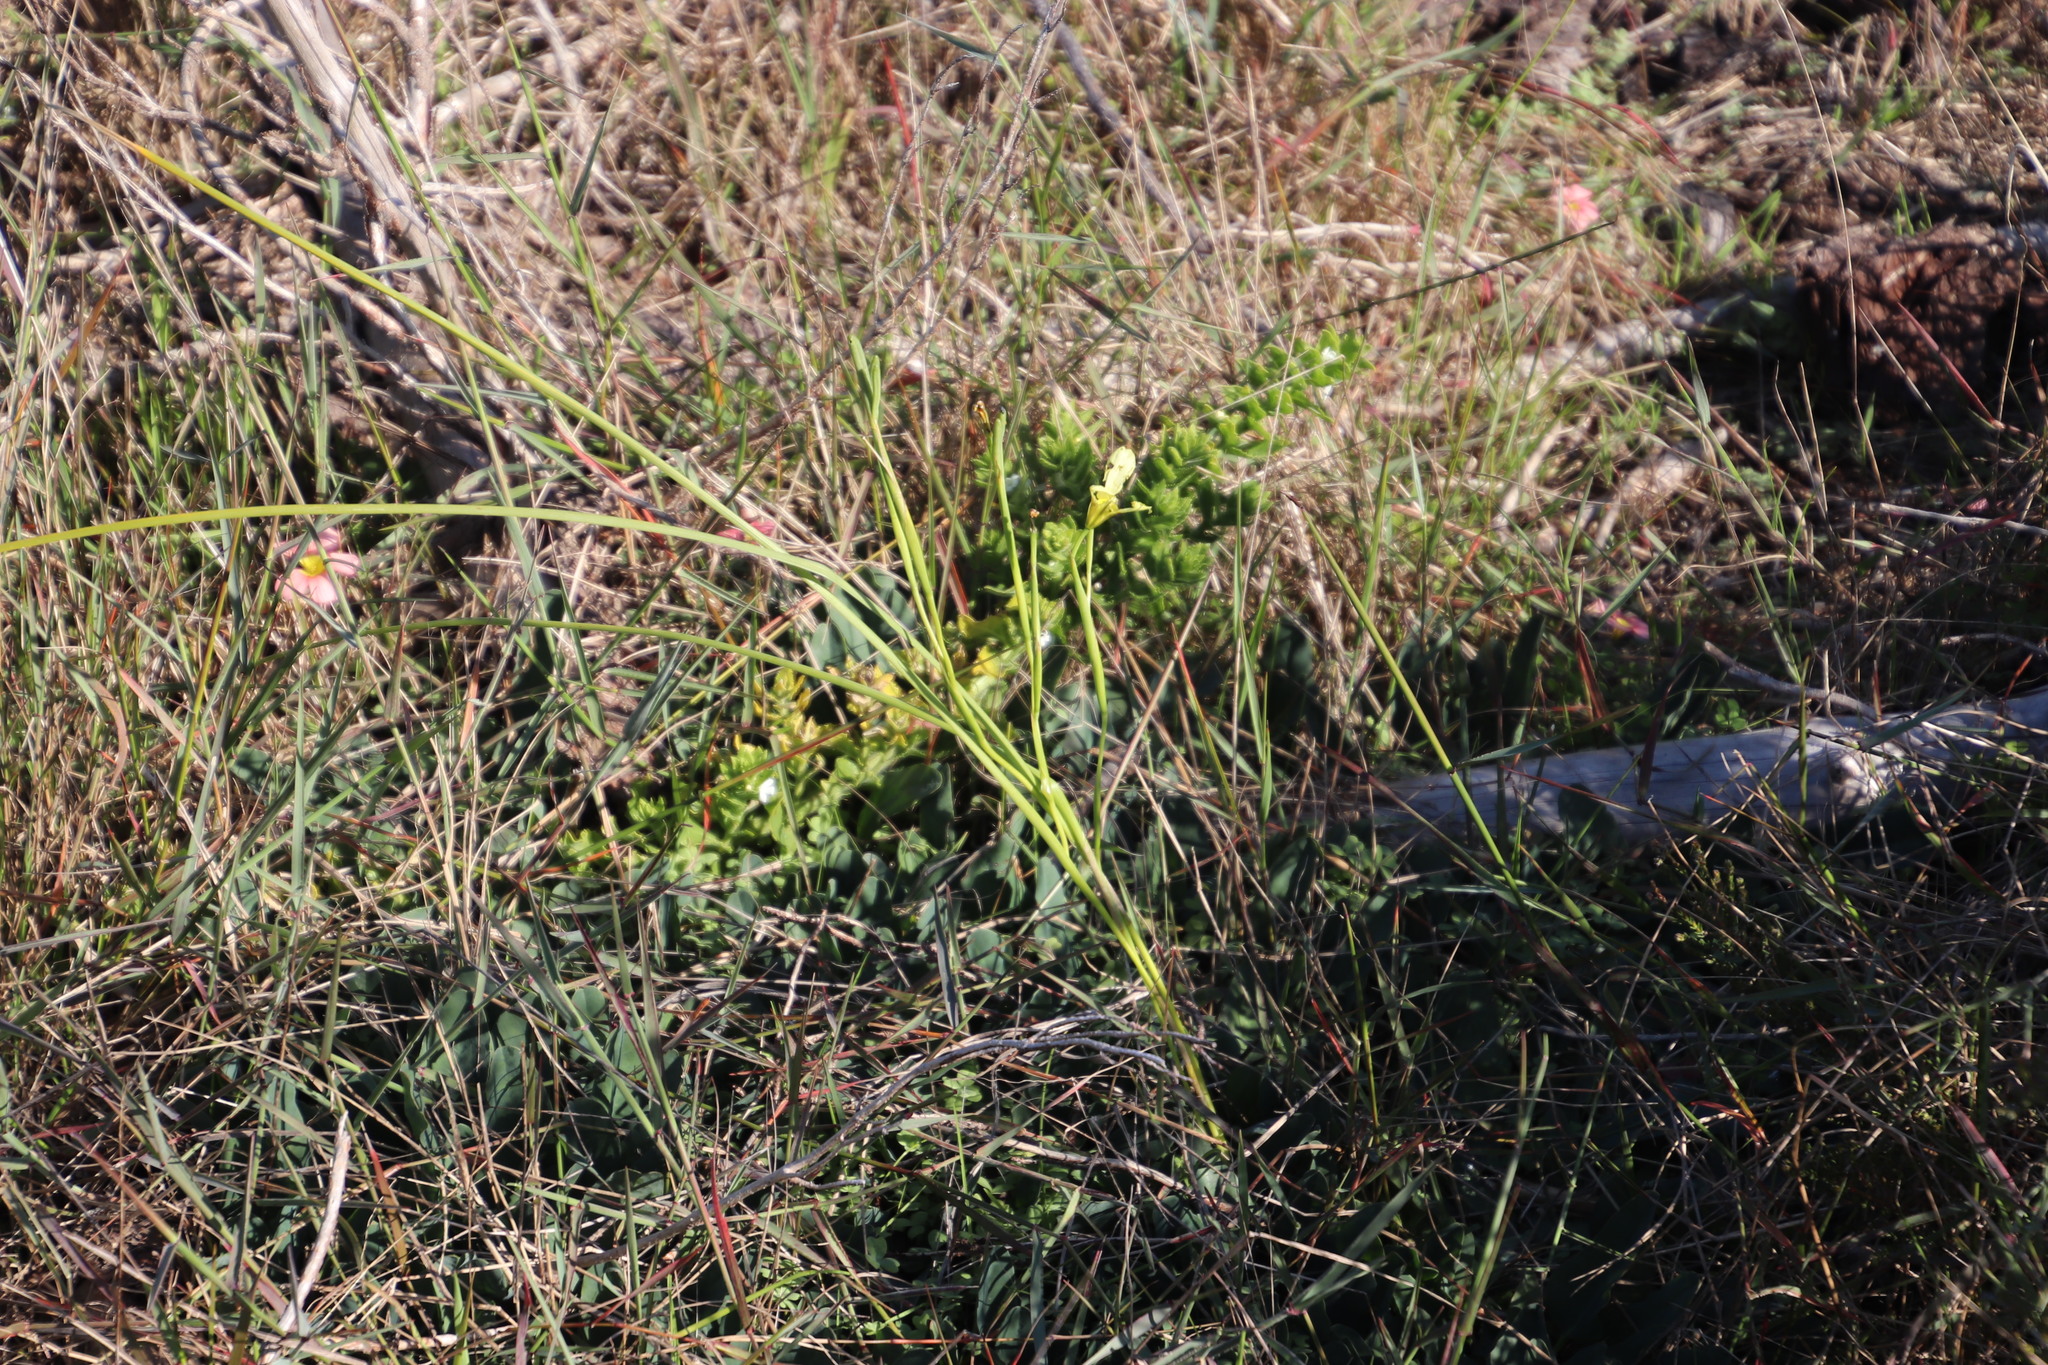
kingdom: Plantae
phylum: Tracheophyta
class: Liliopsida
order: Asparagales
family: Iridaceae
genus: Moraea
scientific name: Moraea collina
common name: Cape-tulip
